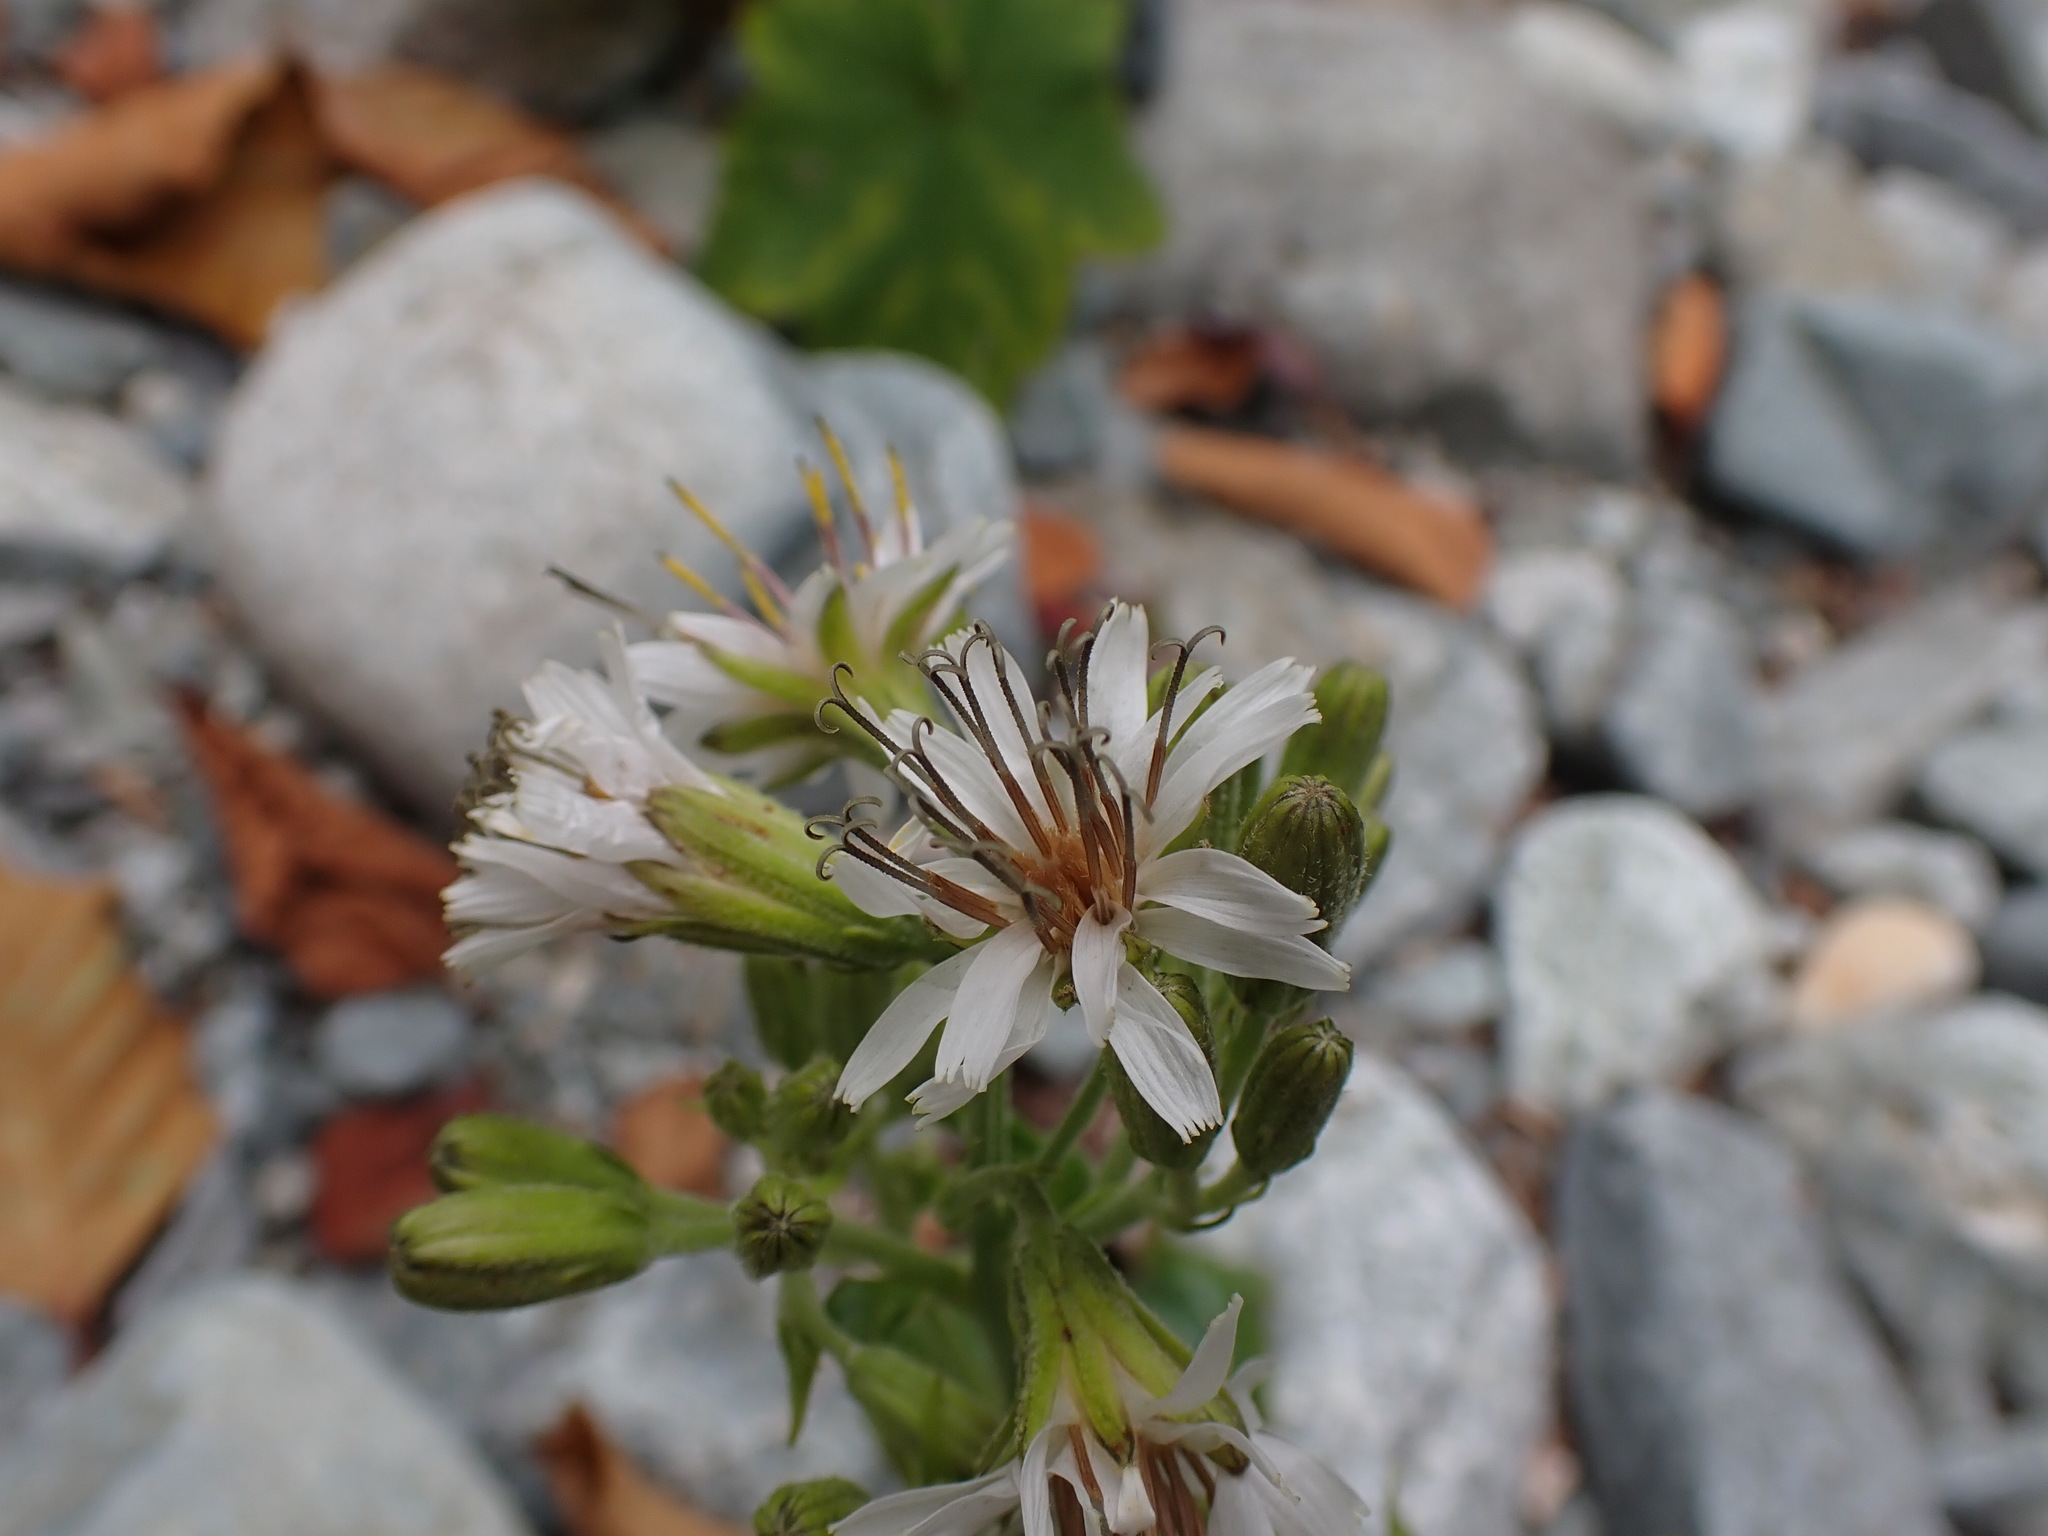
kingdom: Plantae
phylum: Tracheophyta
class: Magnoliopsida
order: Asterales
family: Asteraceae
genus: Nabalus
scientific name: Nabalus hastatus
